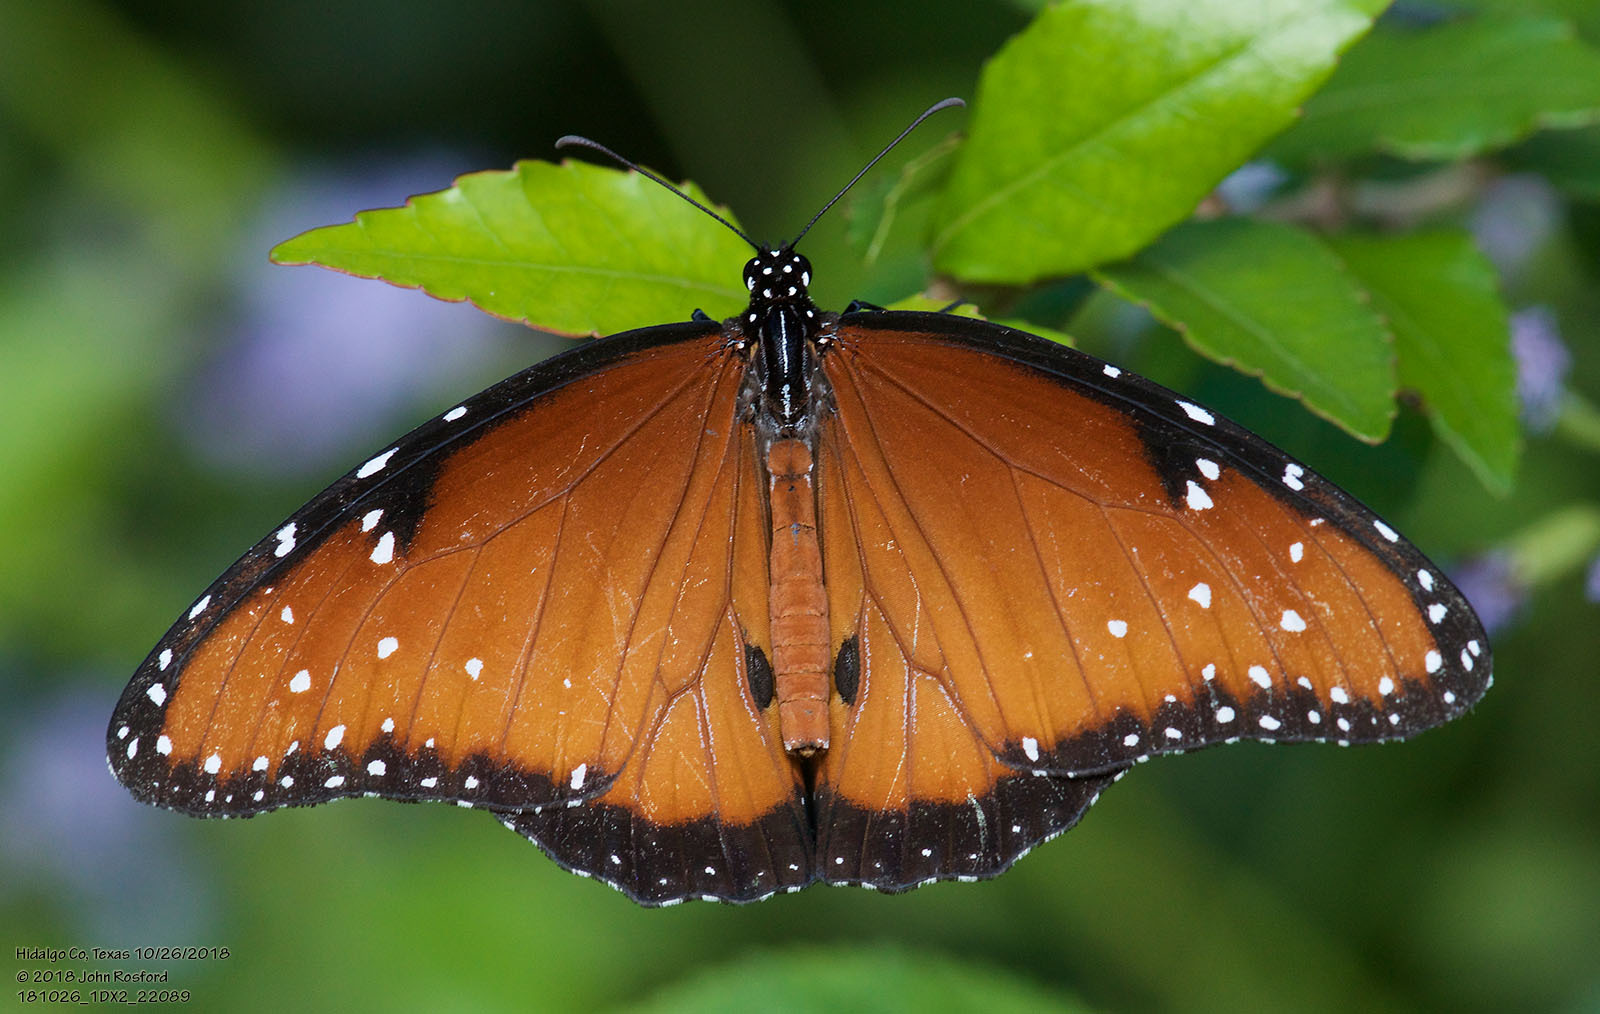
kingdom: Animalia
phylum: Arthropoda
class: Insecta
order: Lepidoptera
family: Nymphalidae
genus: Danaus
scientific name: Danaus gilippus
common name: Queen
